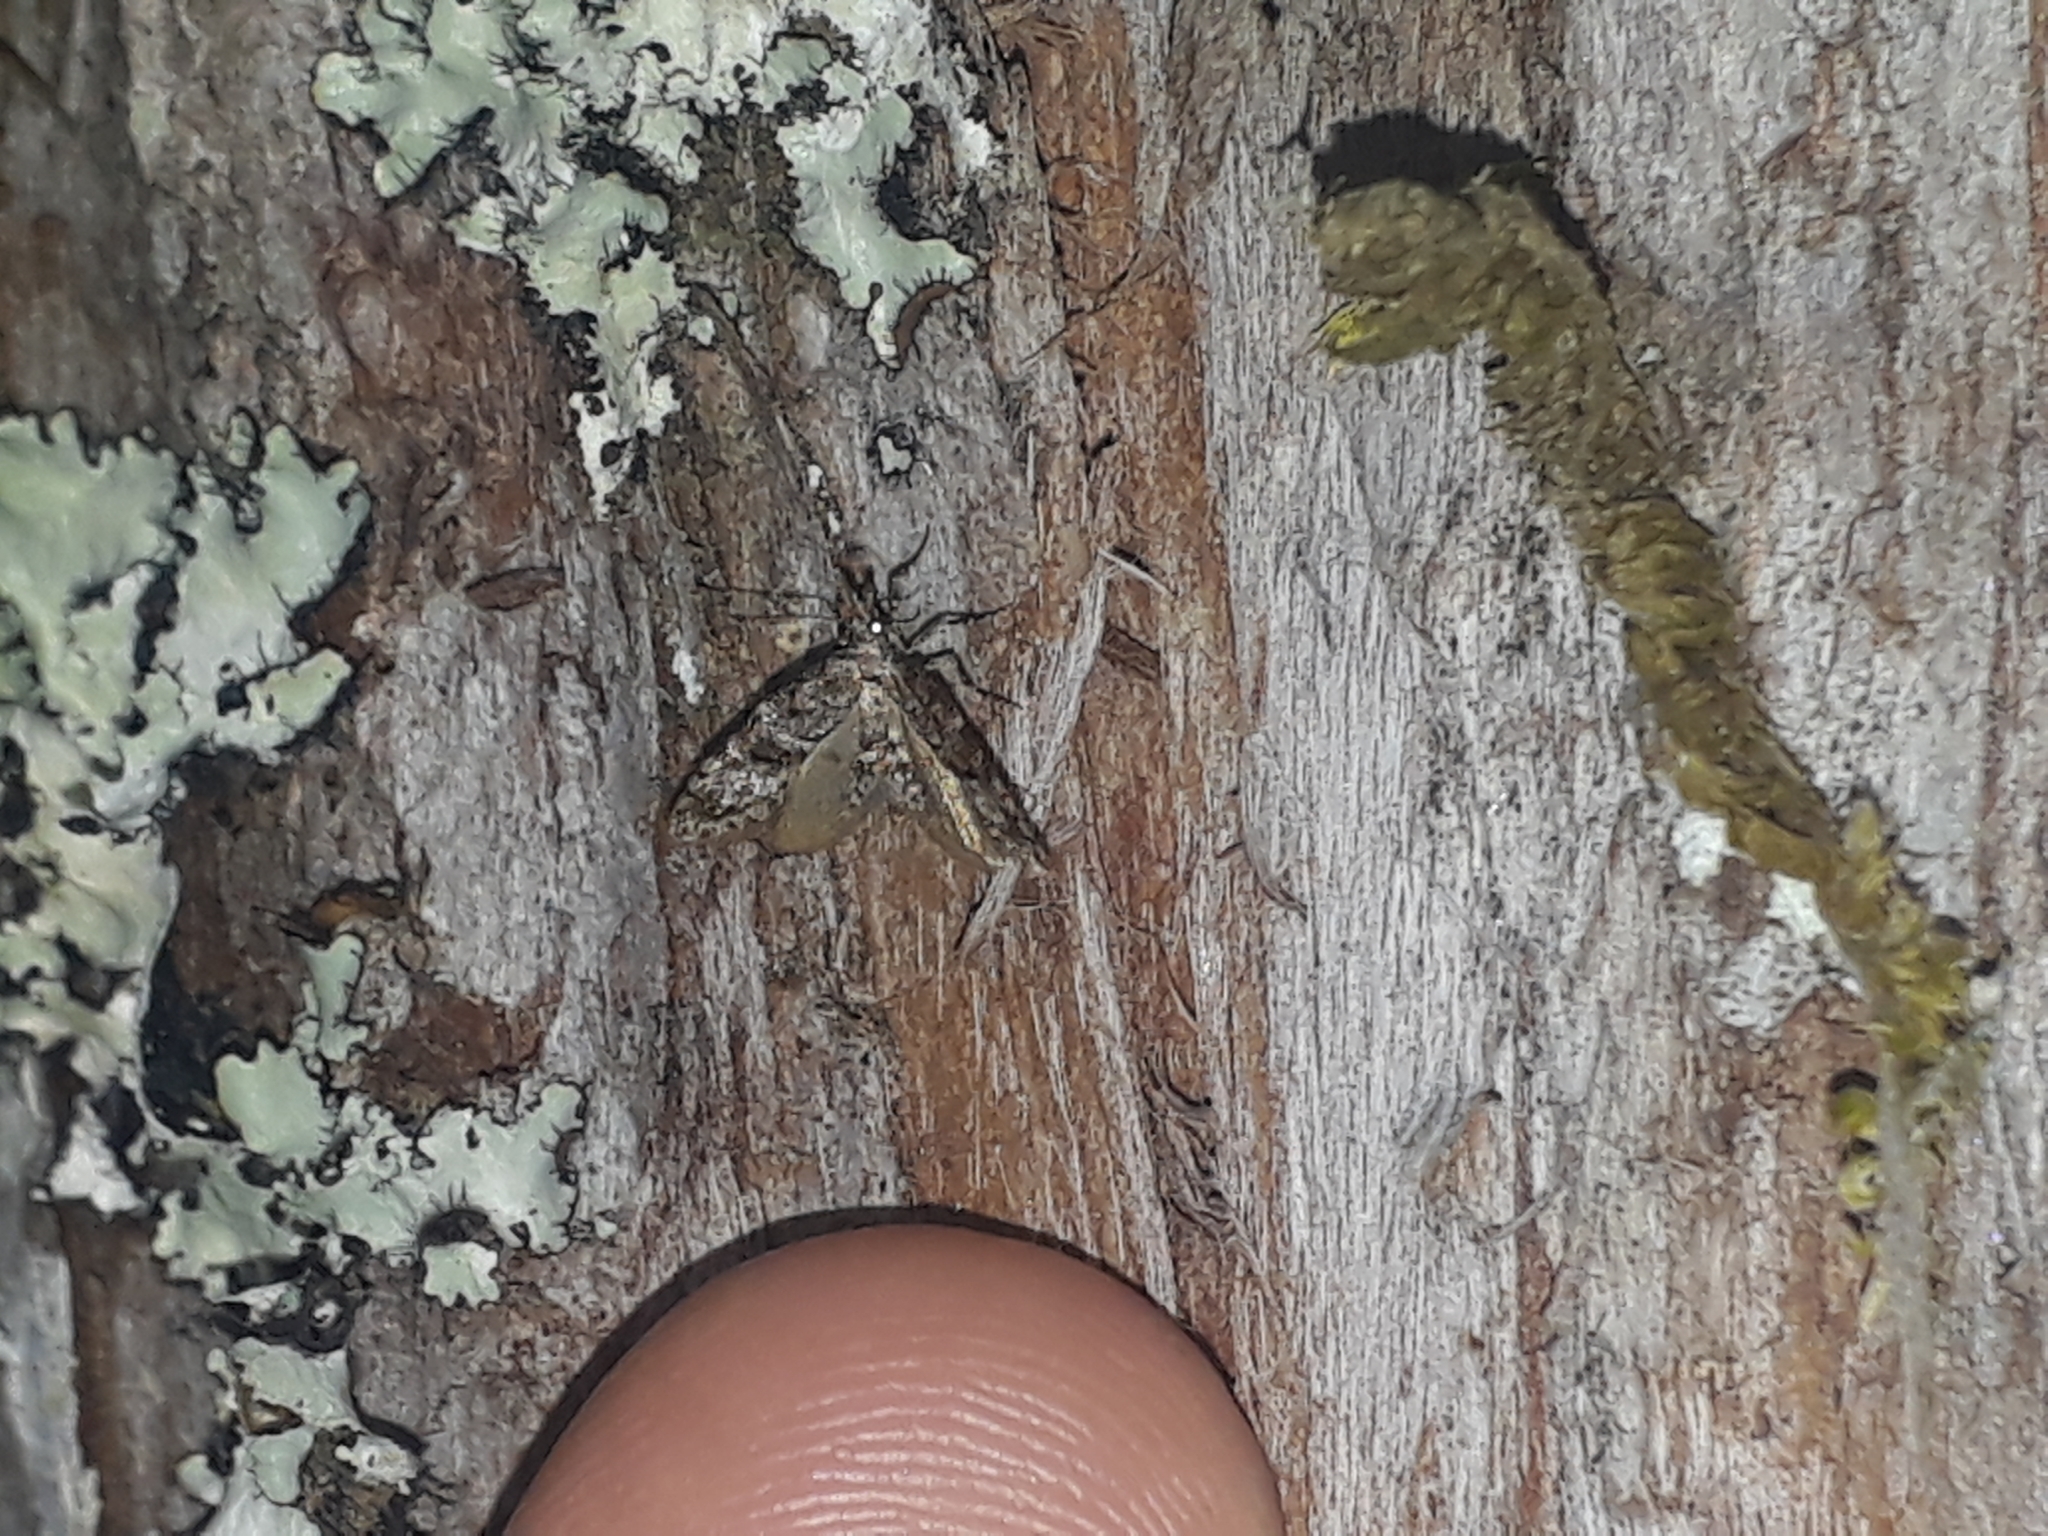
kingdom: Animalia
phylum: Arthropoda
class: Insecta
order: Lepidoptera
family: Copromorphidae
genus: Isonomeutis
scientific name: Isonomeutis restincta
